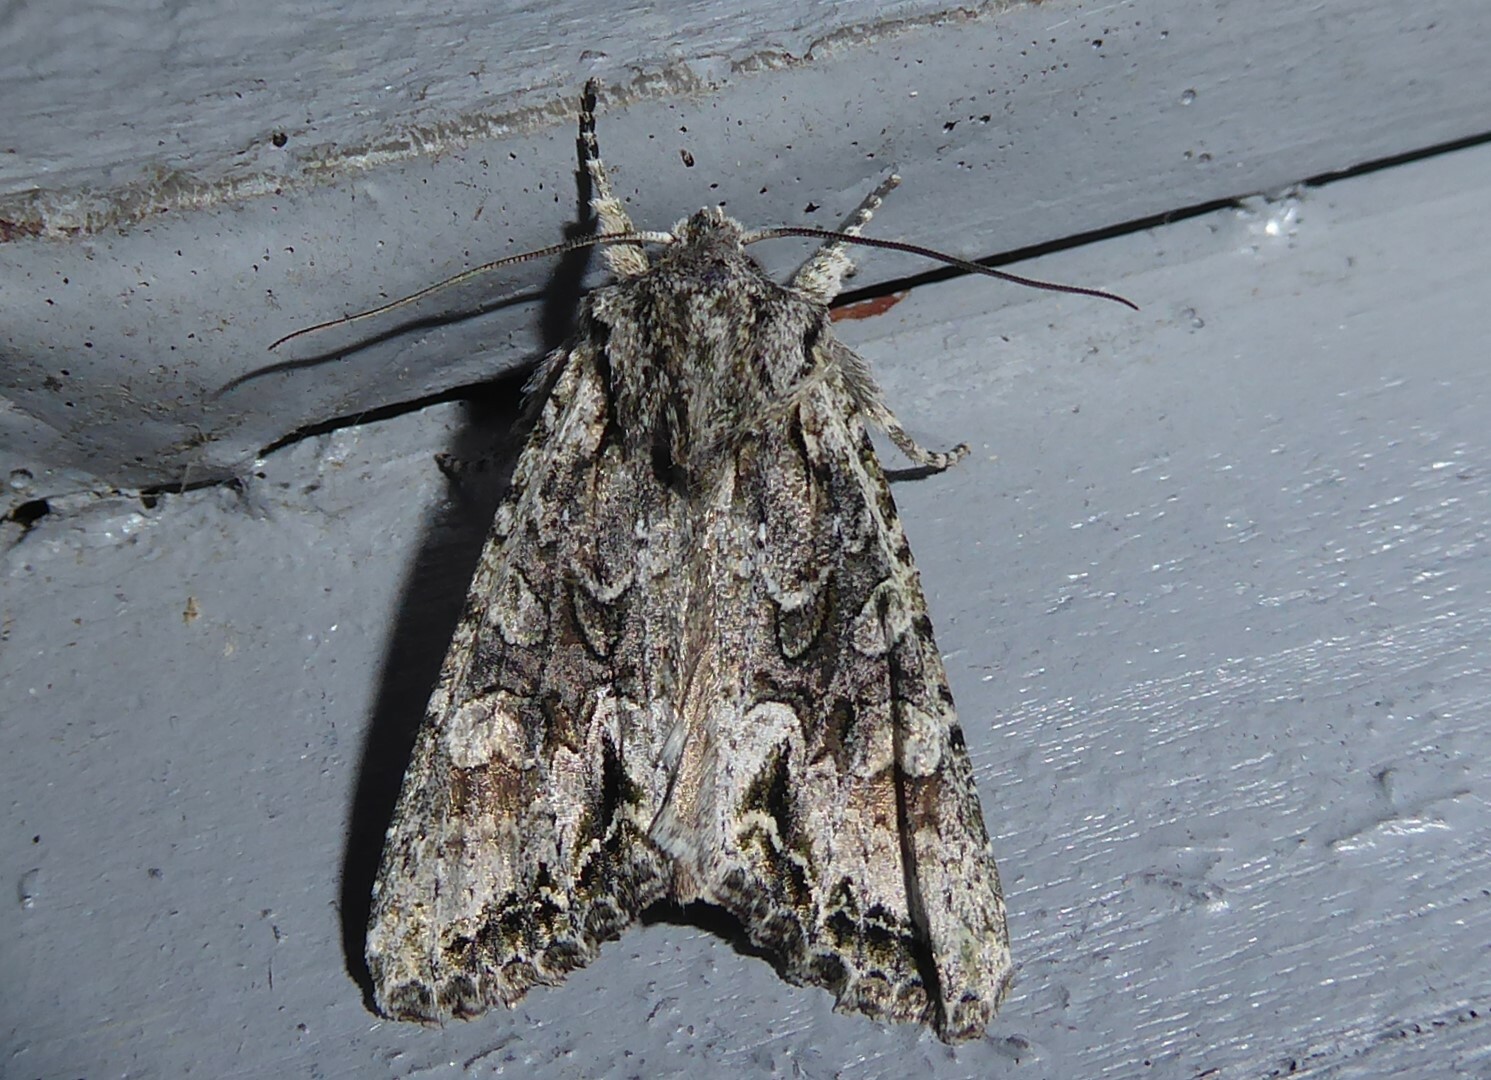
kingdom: Animalia
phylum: Arthropoda
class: Insecta
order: Lepidoptera
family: Noctuidae
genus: Ichneutica
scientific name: Ichneutica mutans
